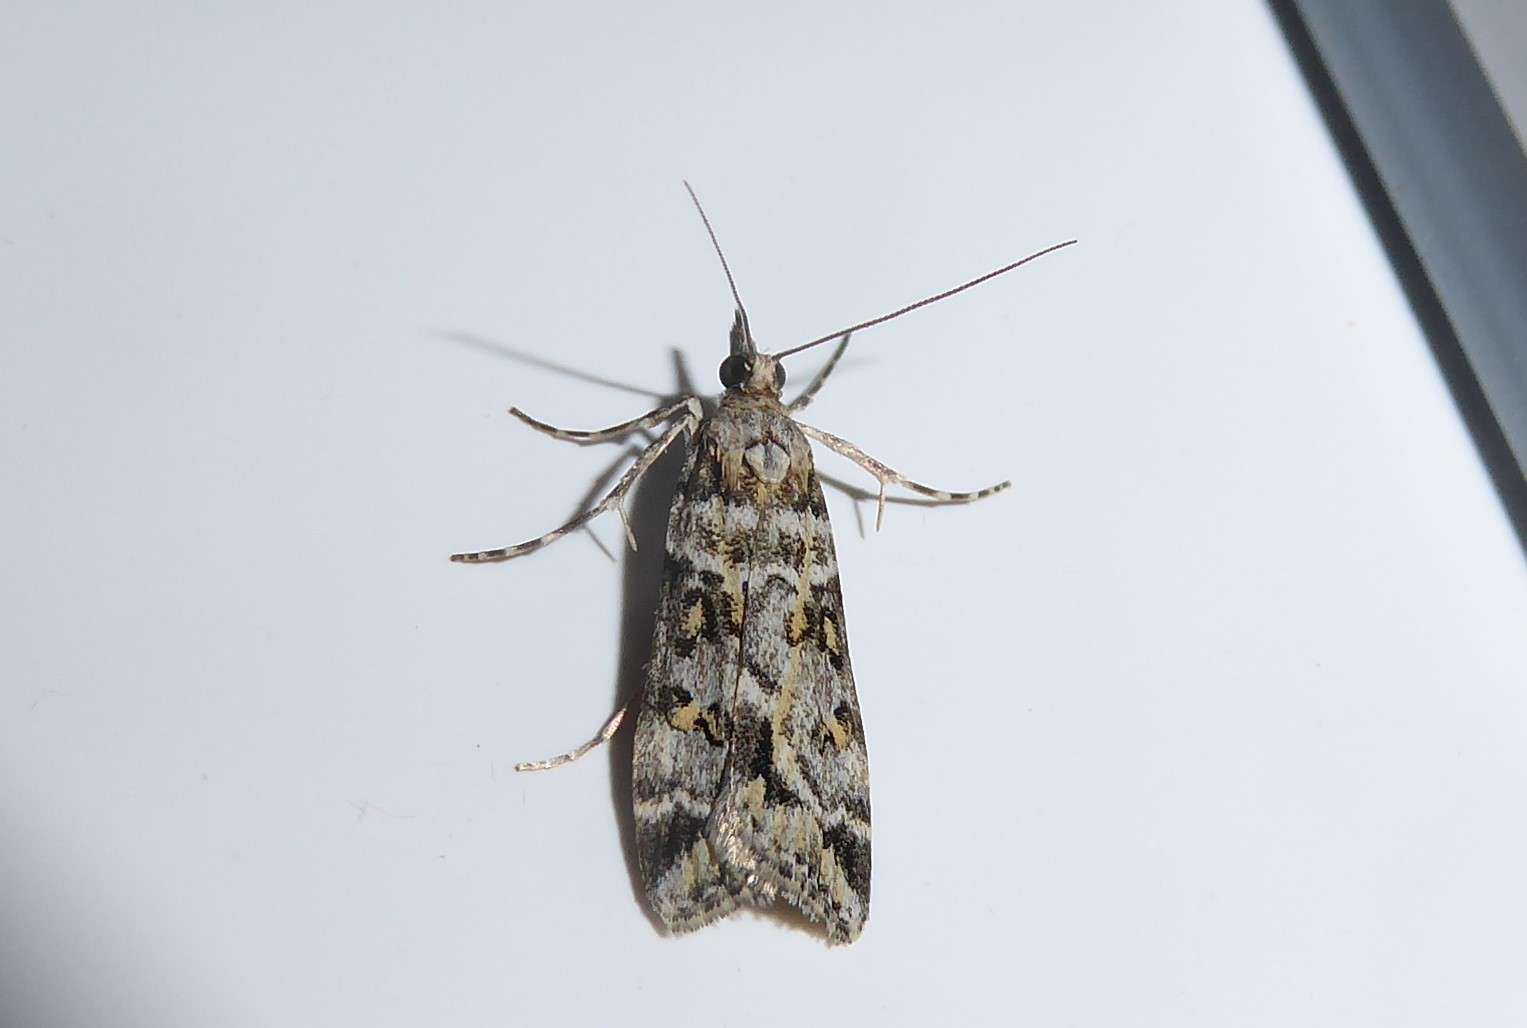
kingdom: Animalia
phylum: Arthropoda
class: Insecta
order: Lepidoptera
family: Crambidae
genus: Eudonia
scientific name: Eudonia diphtheralis
